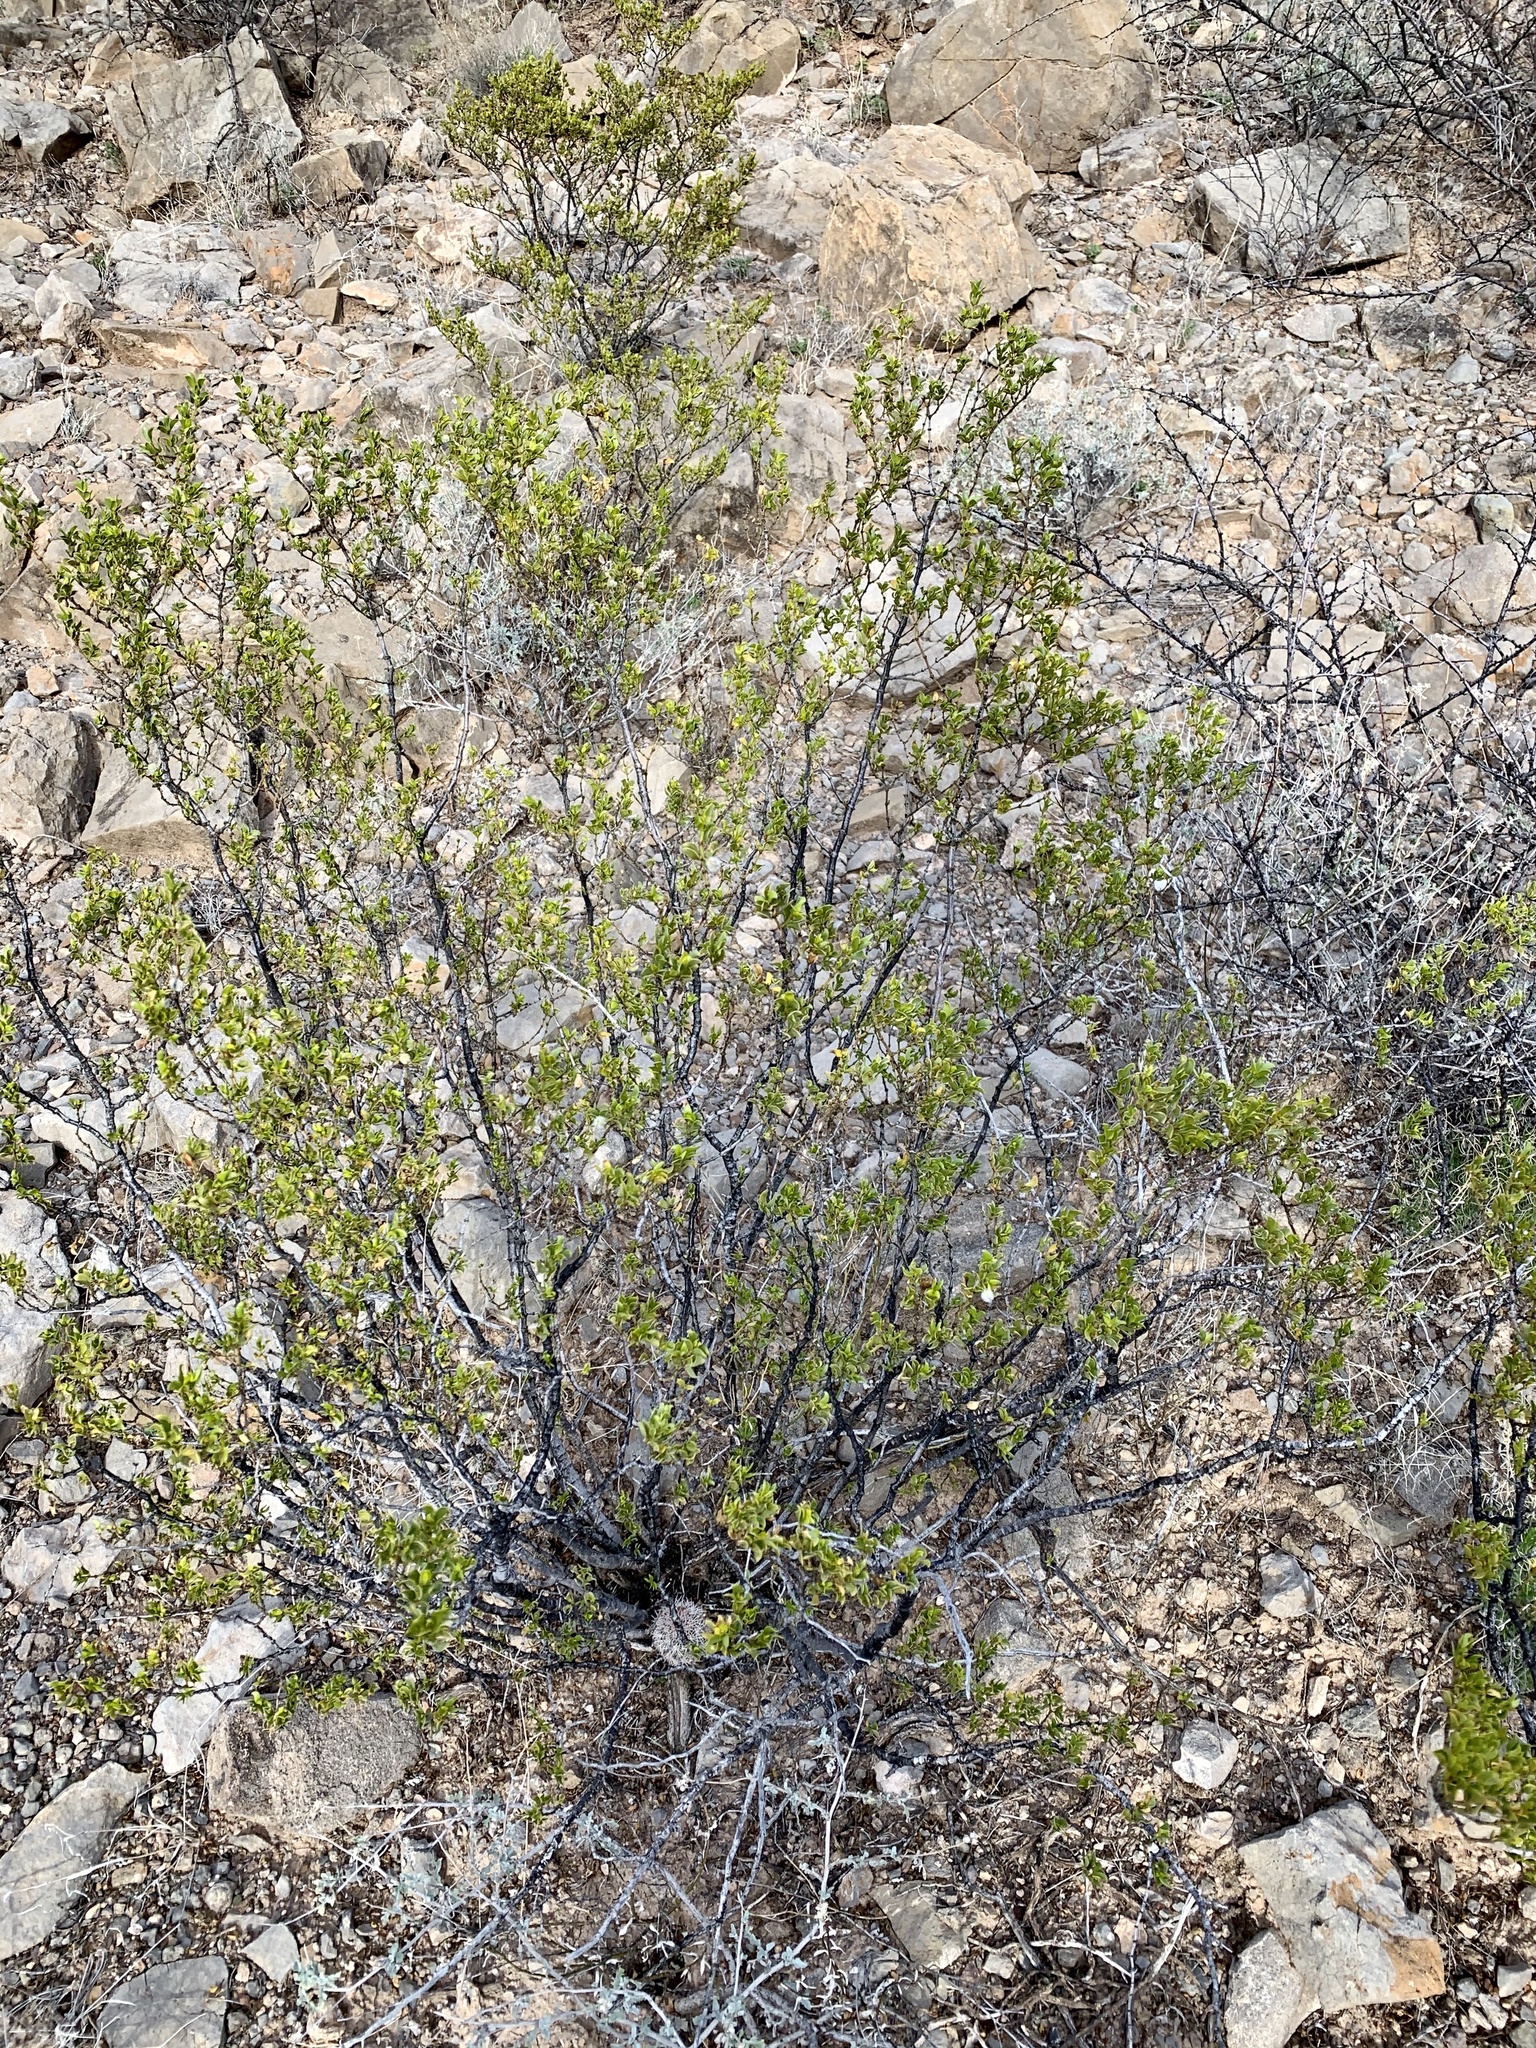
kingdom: Plantae
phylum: Tracheophyta
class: Magnoliopsida
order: Zygophyllales
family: Zygophyllaceae
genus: Larrea
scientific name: Larrea tridentata
